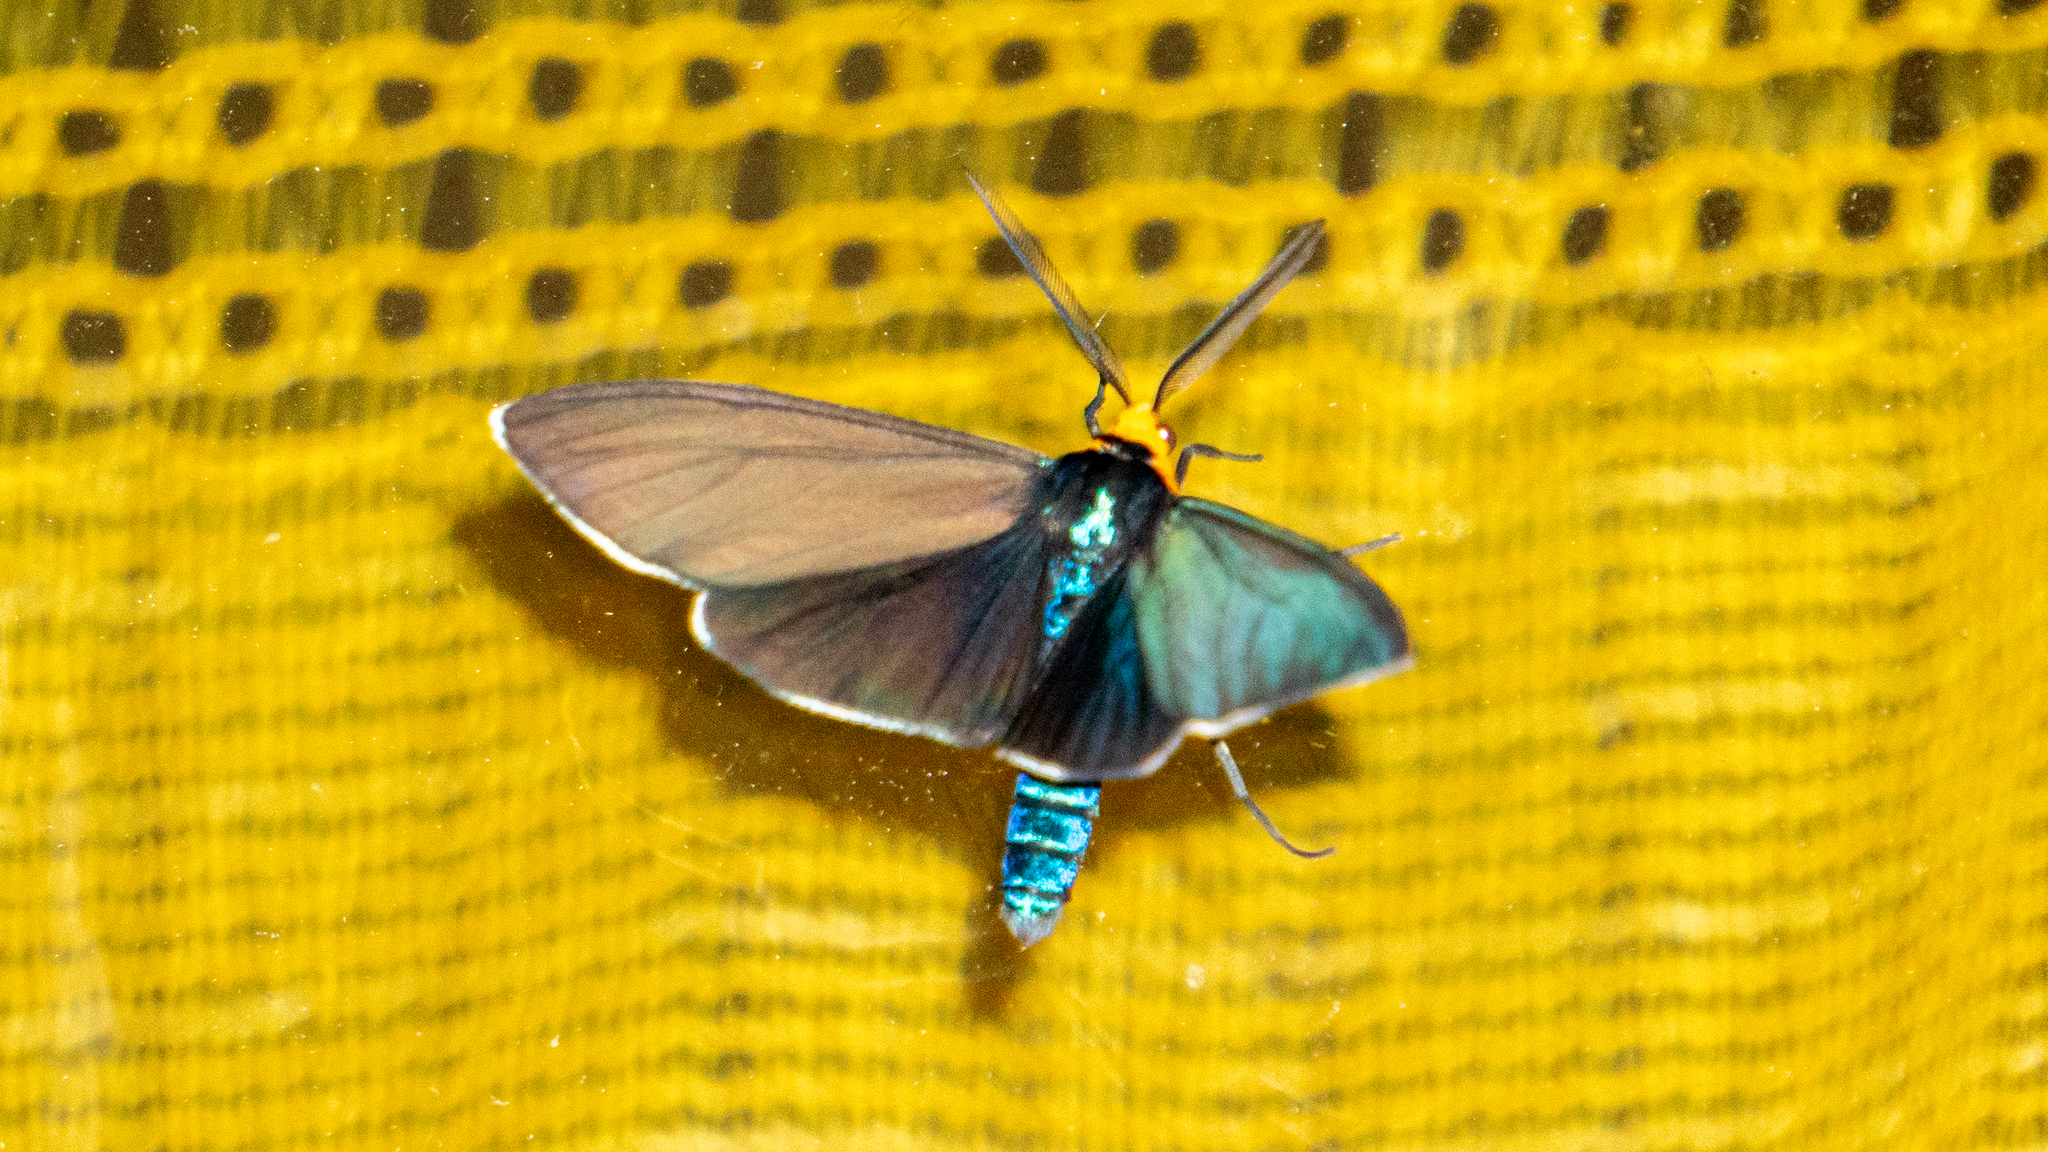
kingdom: Animalia
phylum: Arthropoda
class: Insecta
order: Lepidoptera
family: Erebidae
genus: Ctenucha
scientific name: Ctenucha virginica
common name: Virginia ctenucha moth
